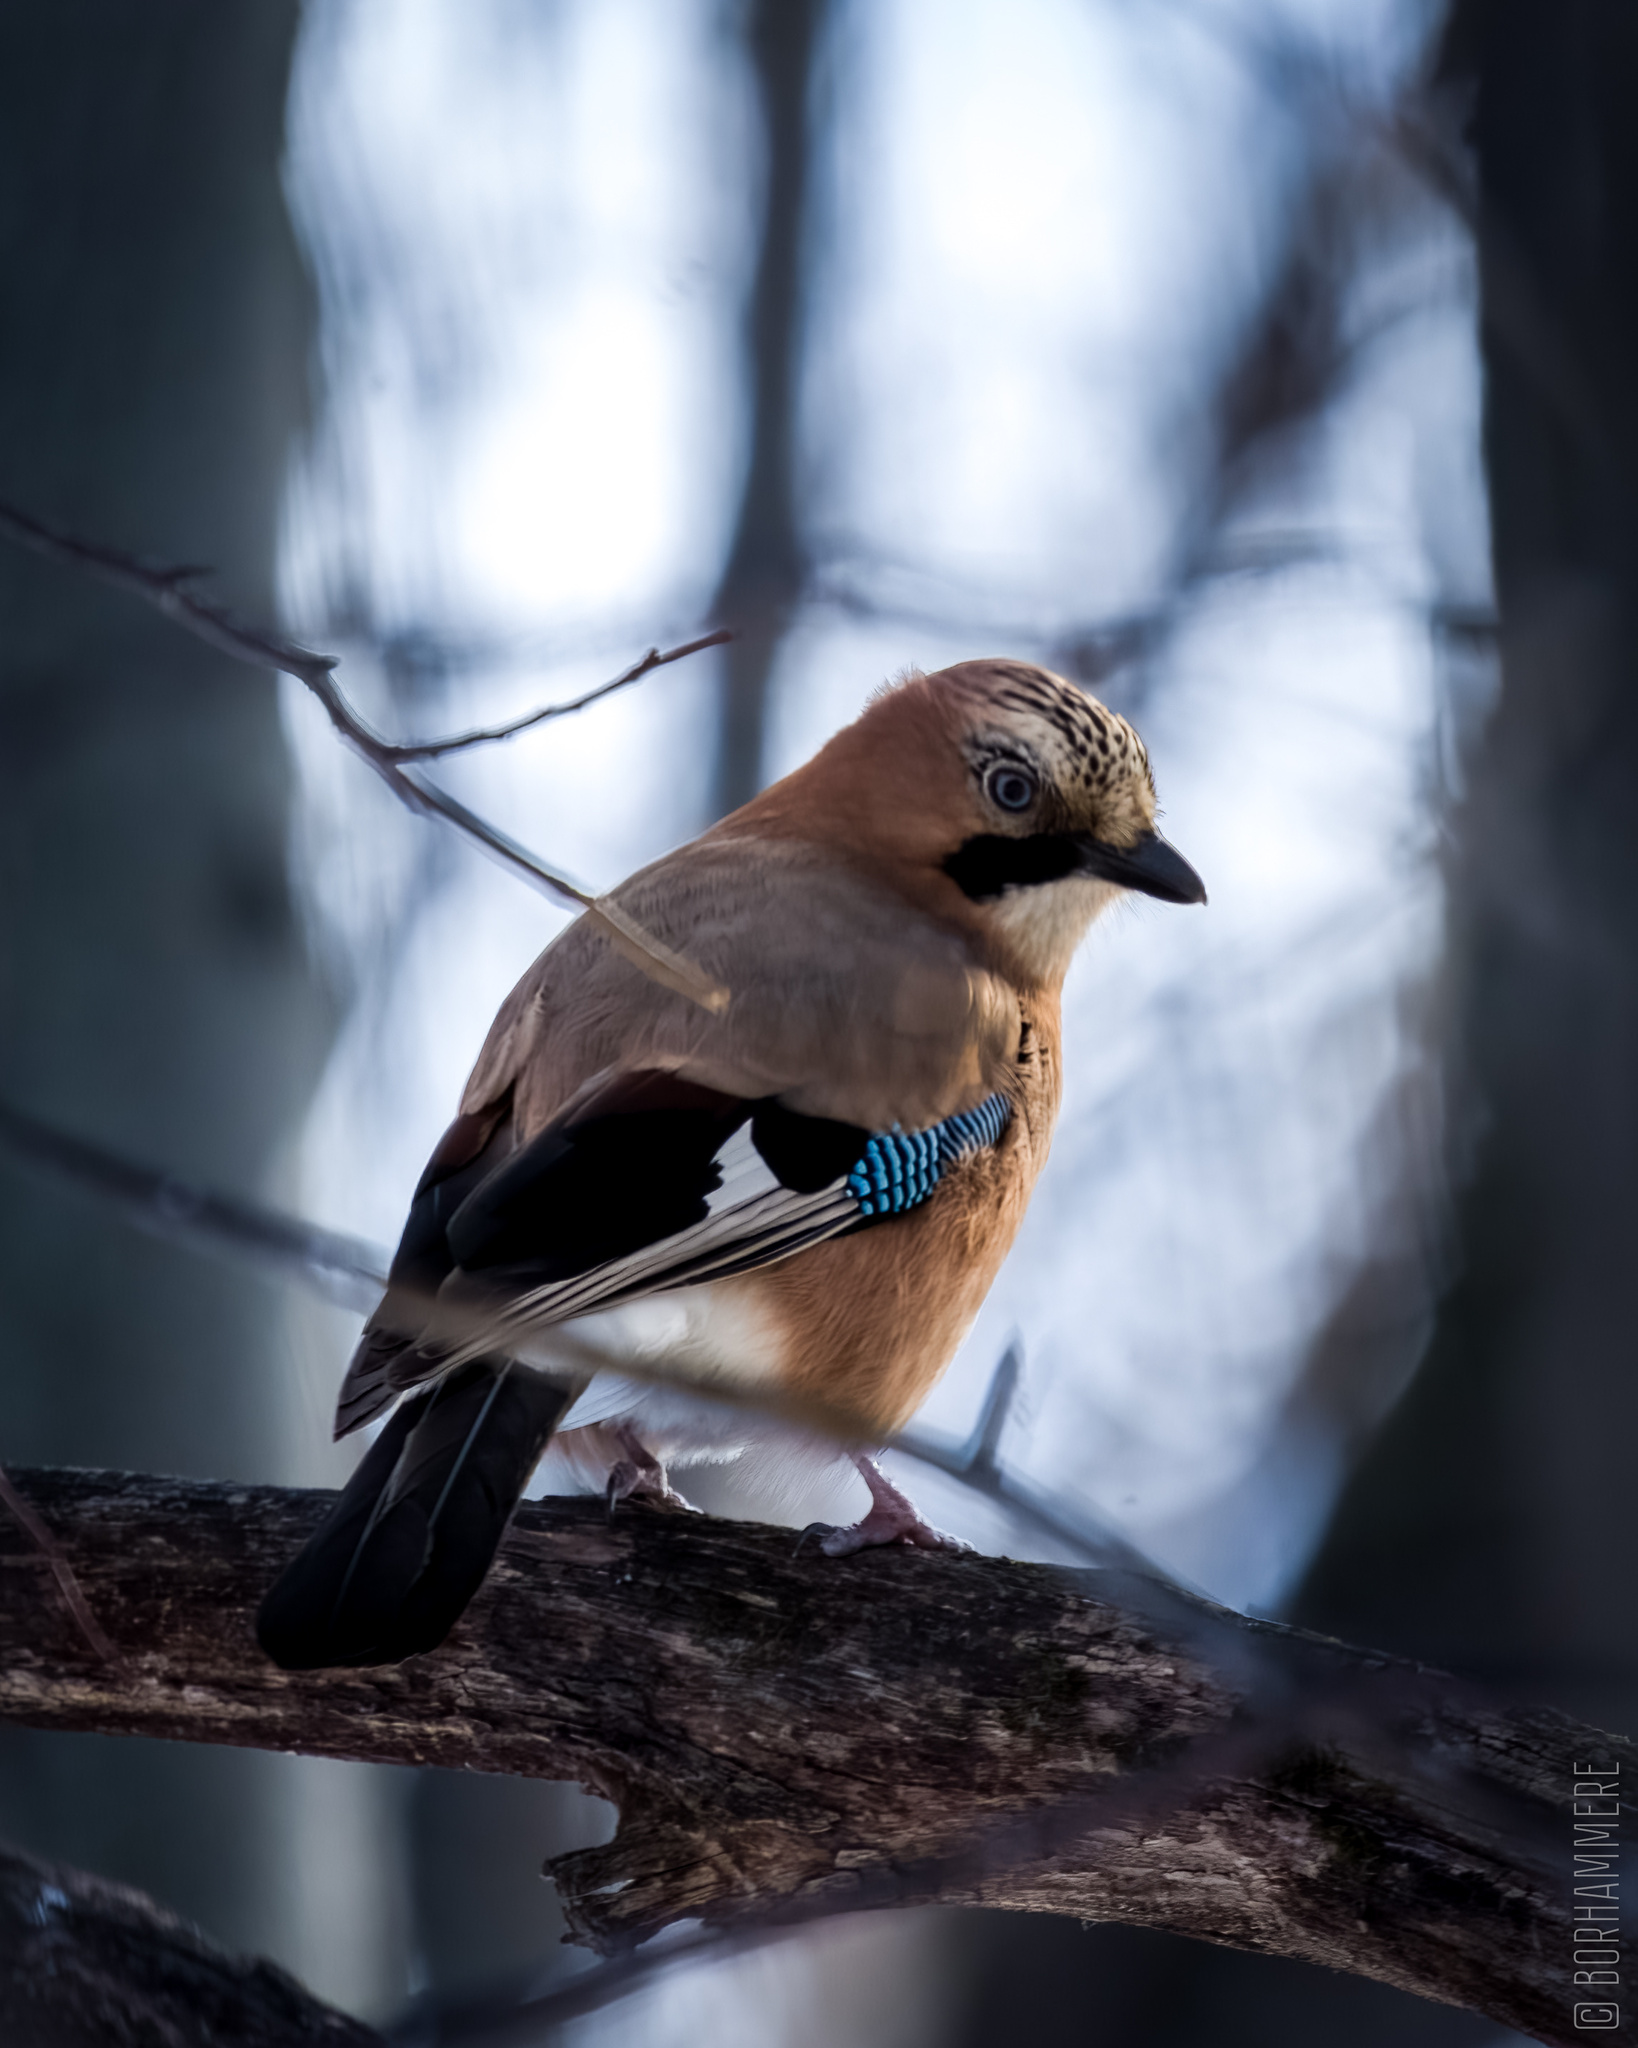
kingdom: Animalia
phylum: Chordata
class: Aves
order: Passeriformes
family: Corvidae
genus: Garrulus
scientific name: Garrulus glandarius
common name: Eurasian jay
